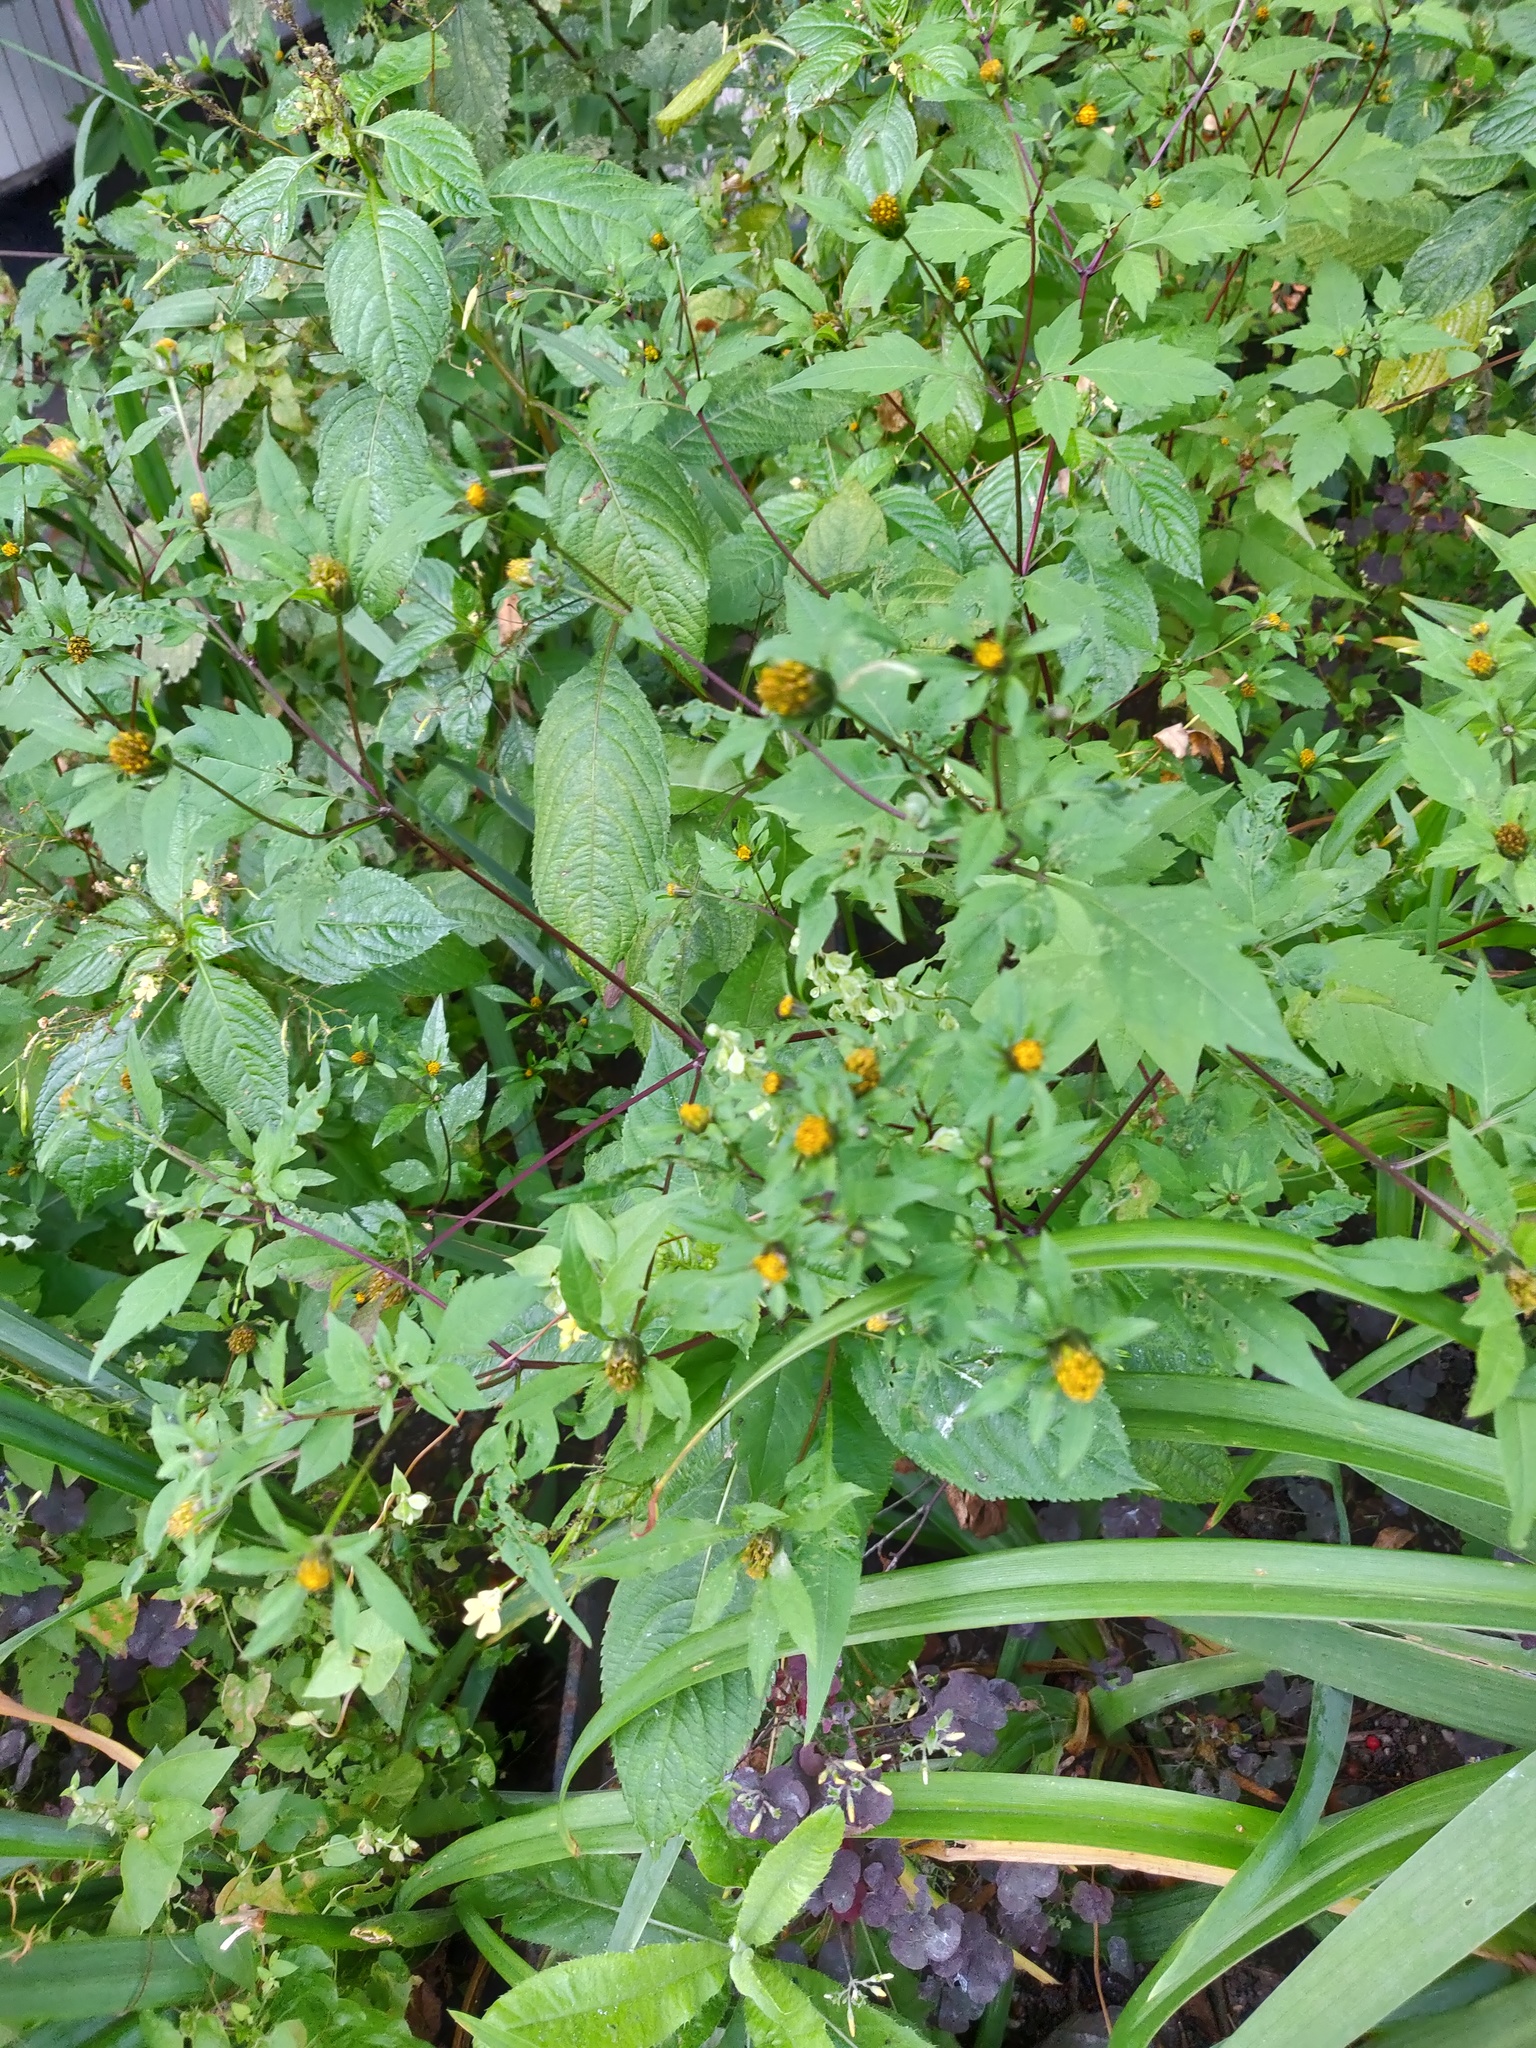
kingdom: Plantae
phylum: Tracheophyta
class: Magnoliopsida
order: Asterales
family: Asteraceae
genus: Bidens
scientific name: Bidens frondosa
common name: Beggarticks
